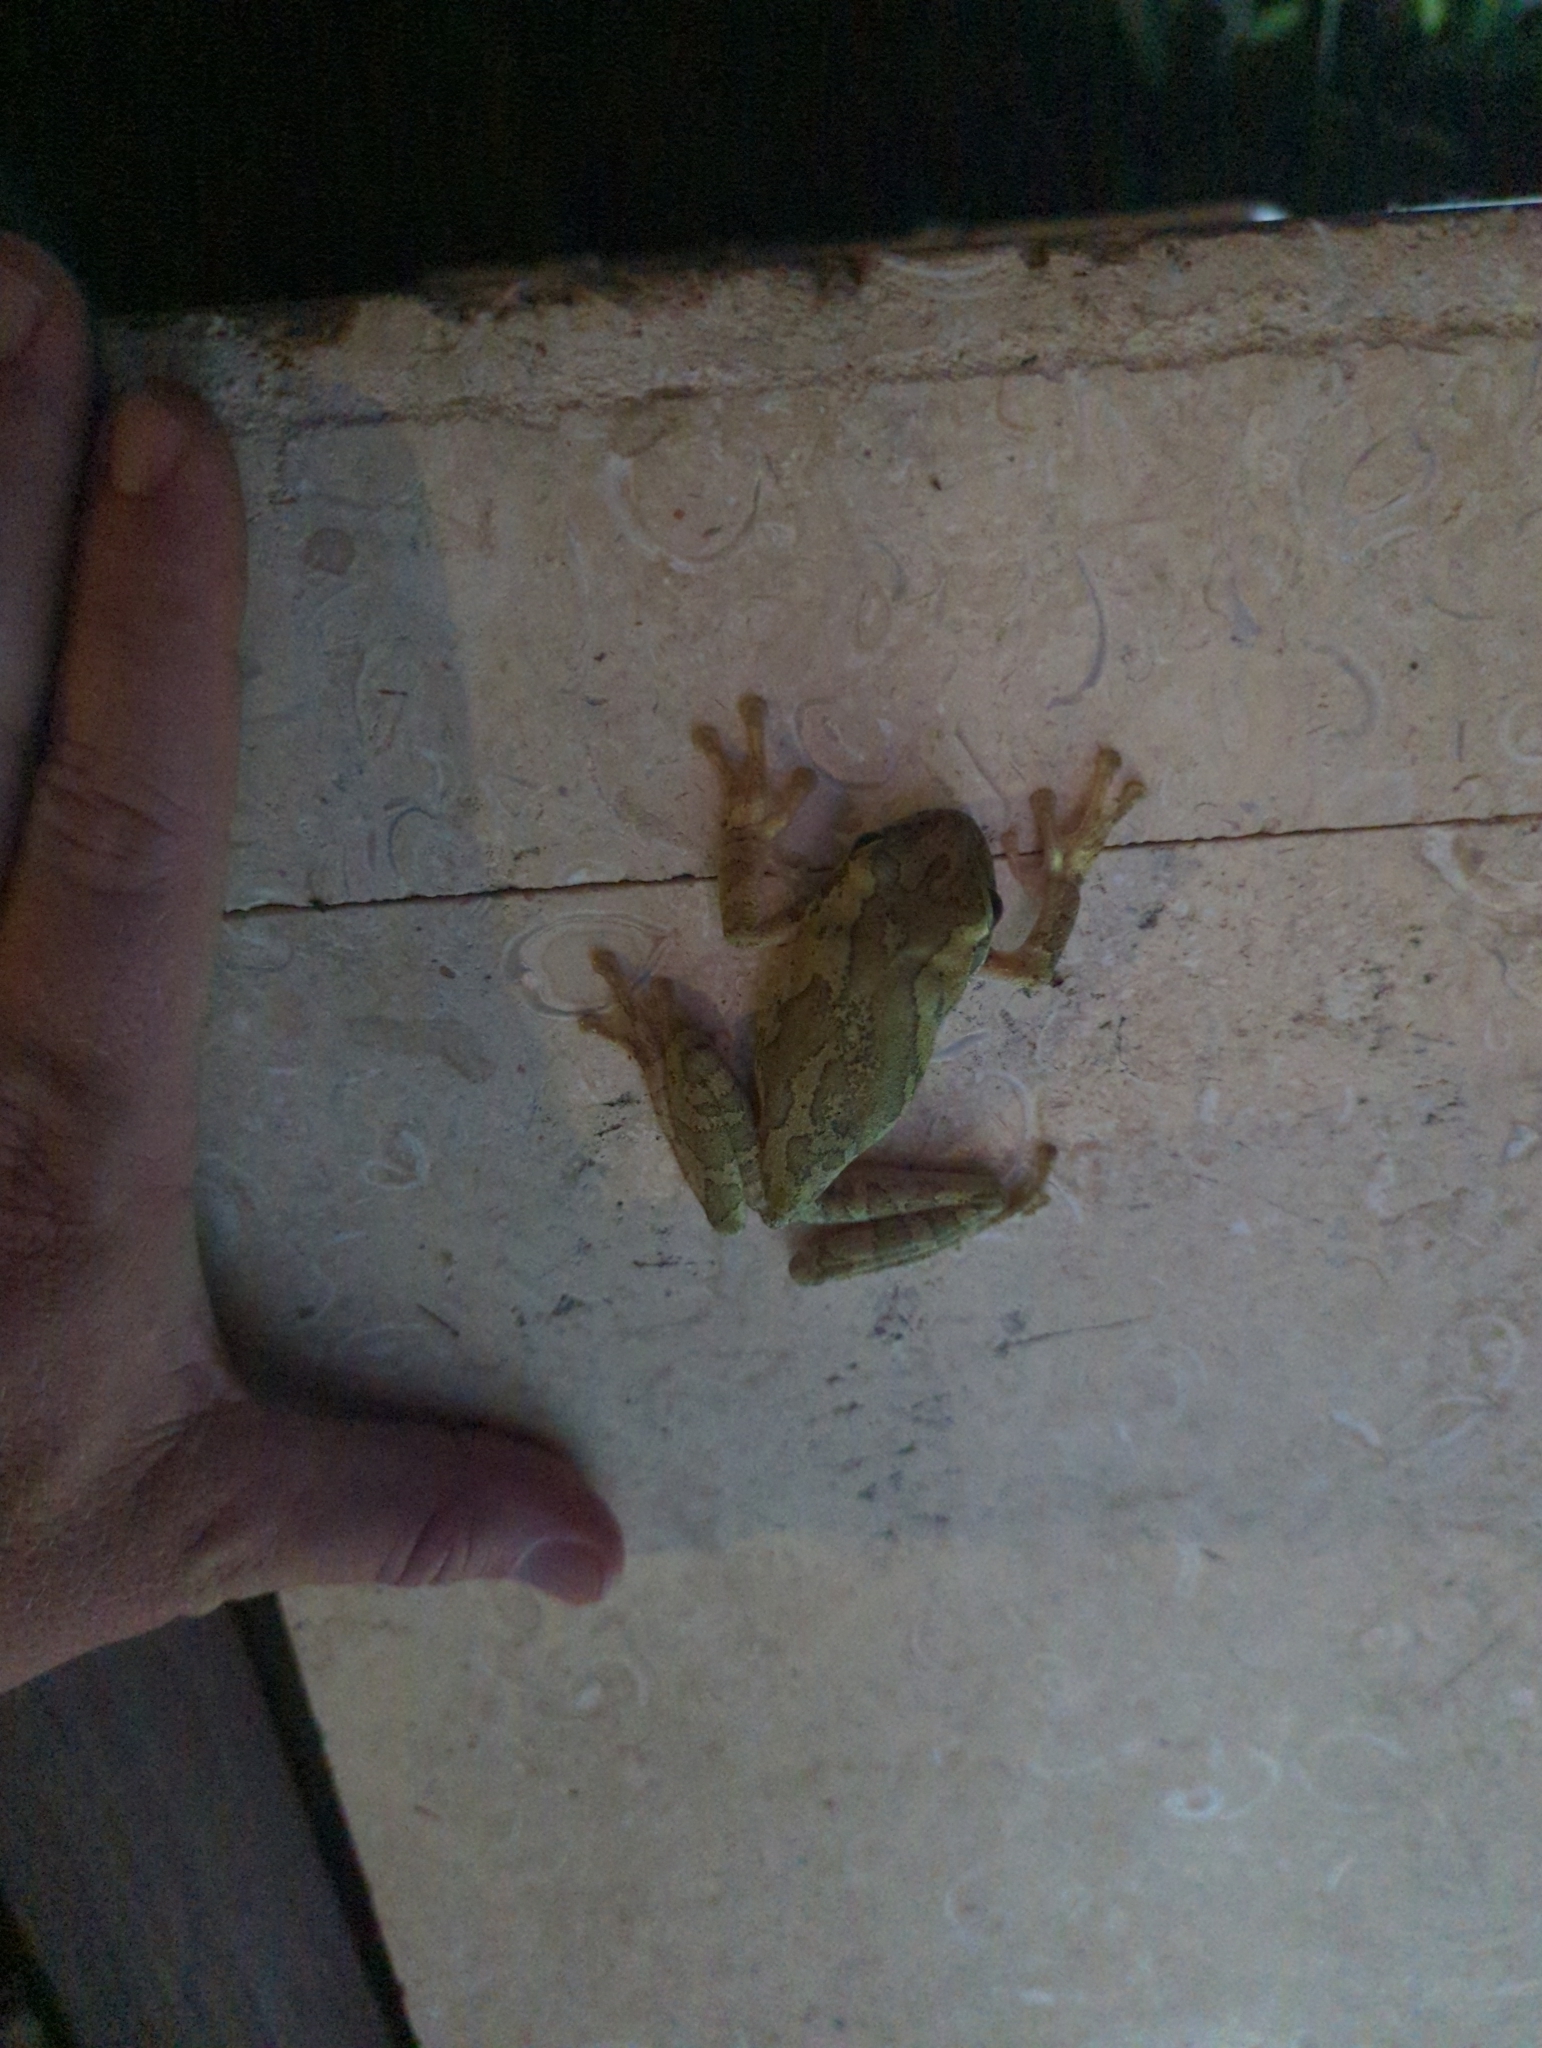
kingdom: Animalia
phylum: Chordata
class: Amphibia
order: Anura
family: Hylidae
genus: Smilisca
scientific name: Smilisca baudinii
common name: Mexican smilisca
